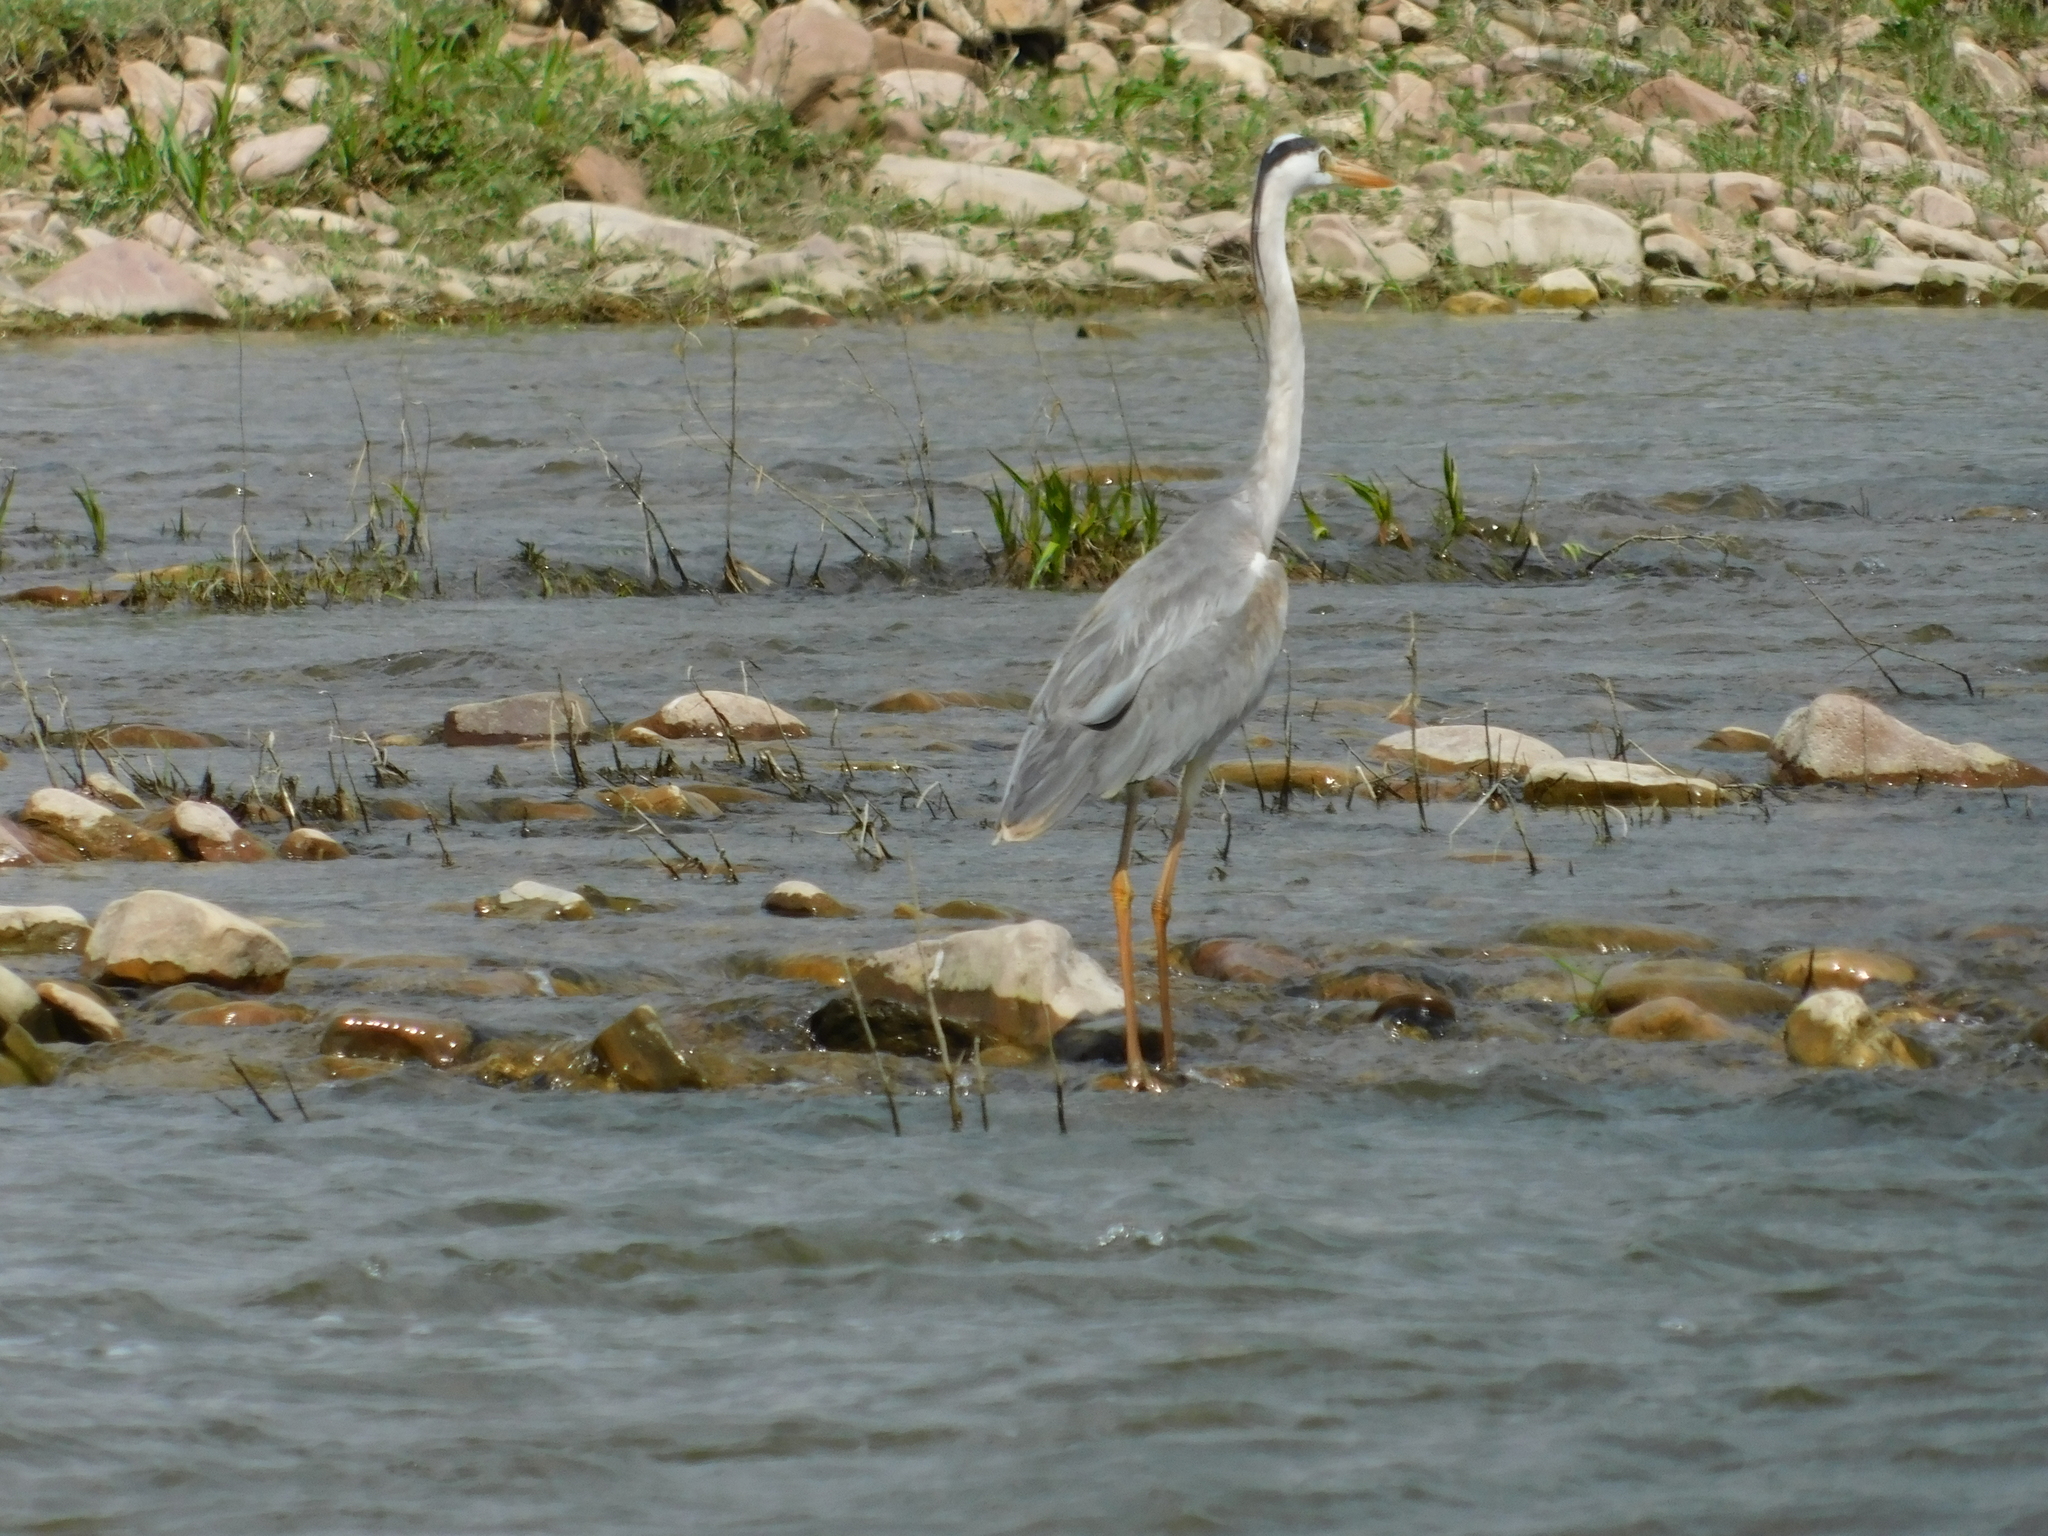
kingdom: Animalia
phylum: Chordata
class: Aves
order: Pelecaniformes
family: Ardeidae
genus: Ardea
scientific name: Ardea cinerea
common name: Grey heron
